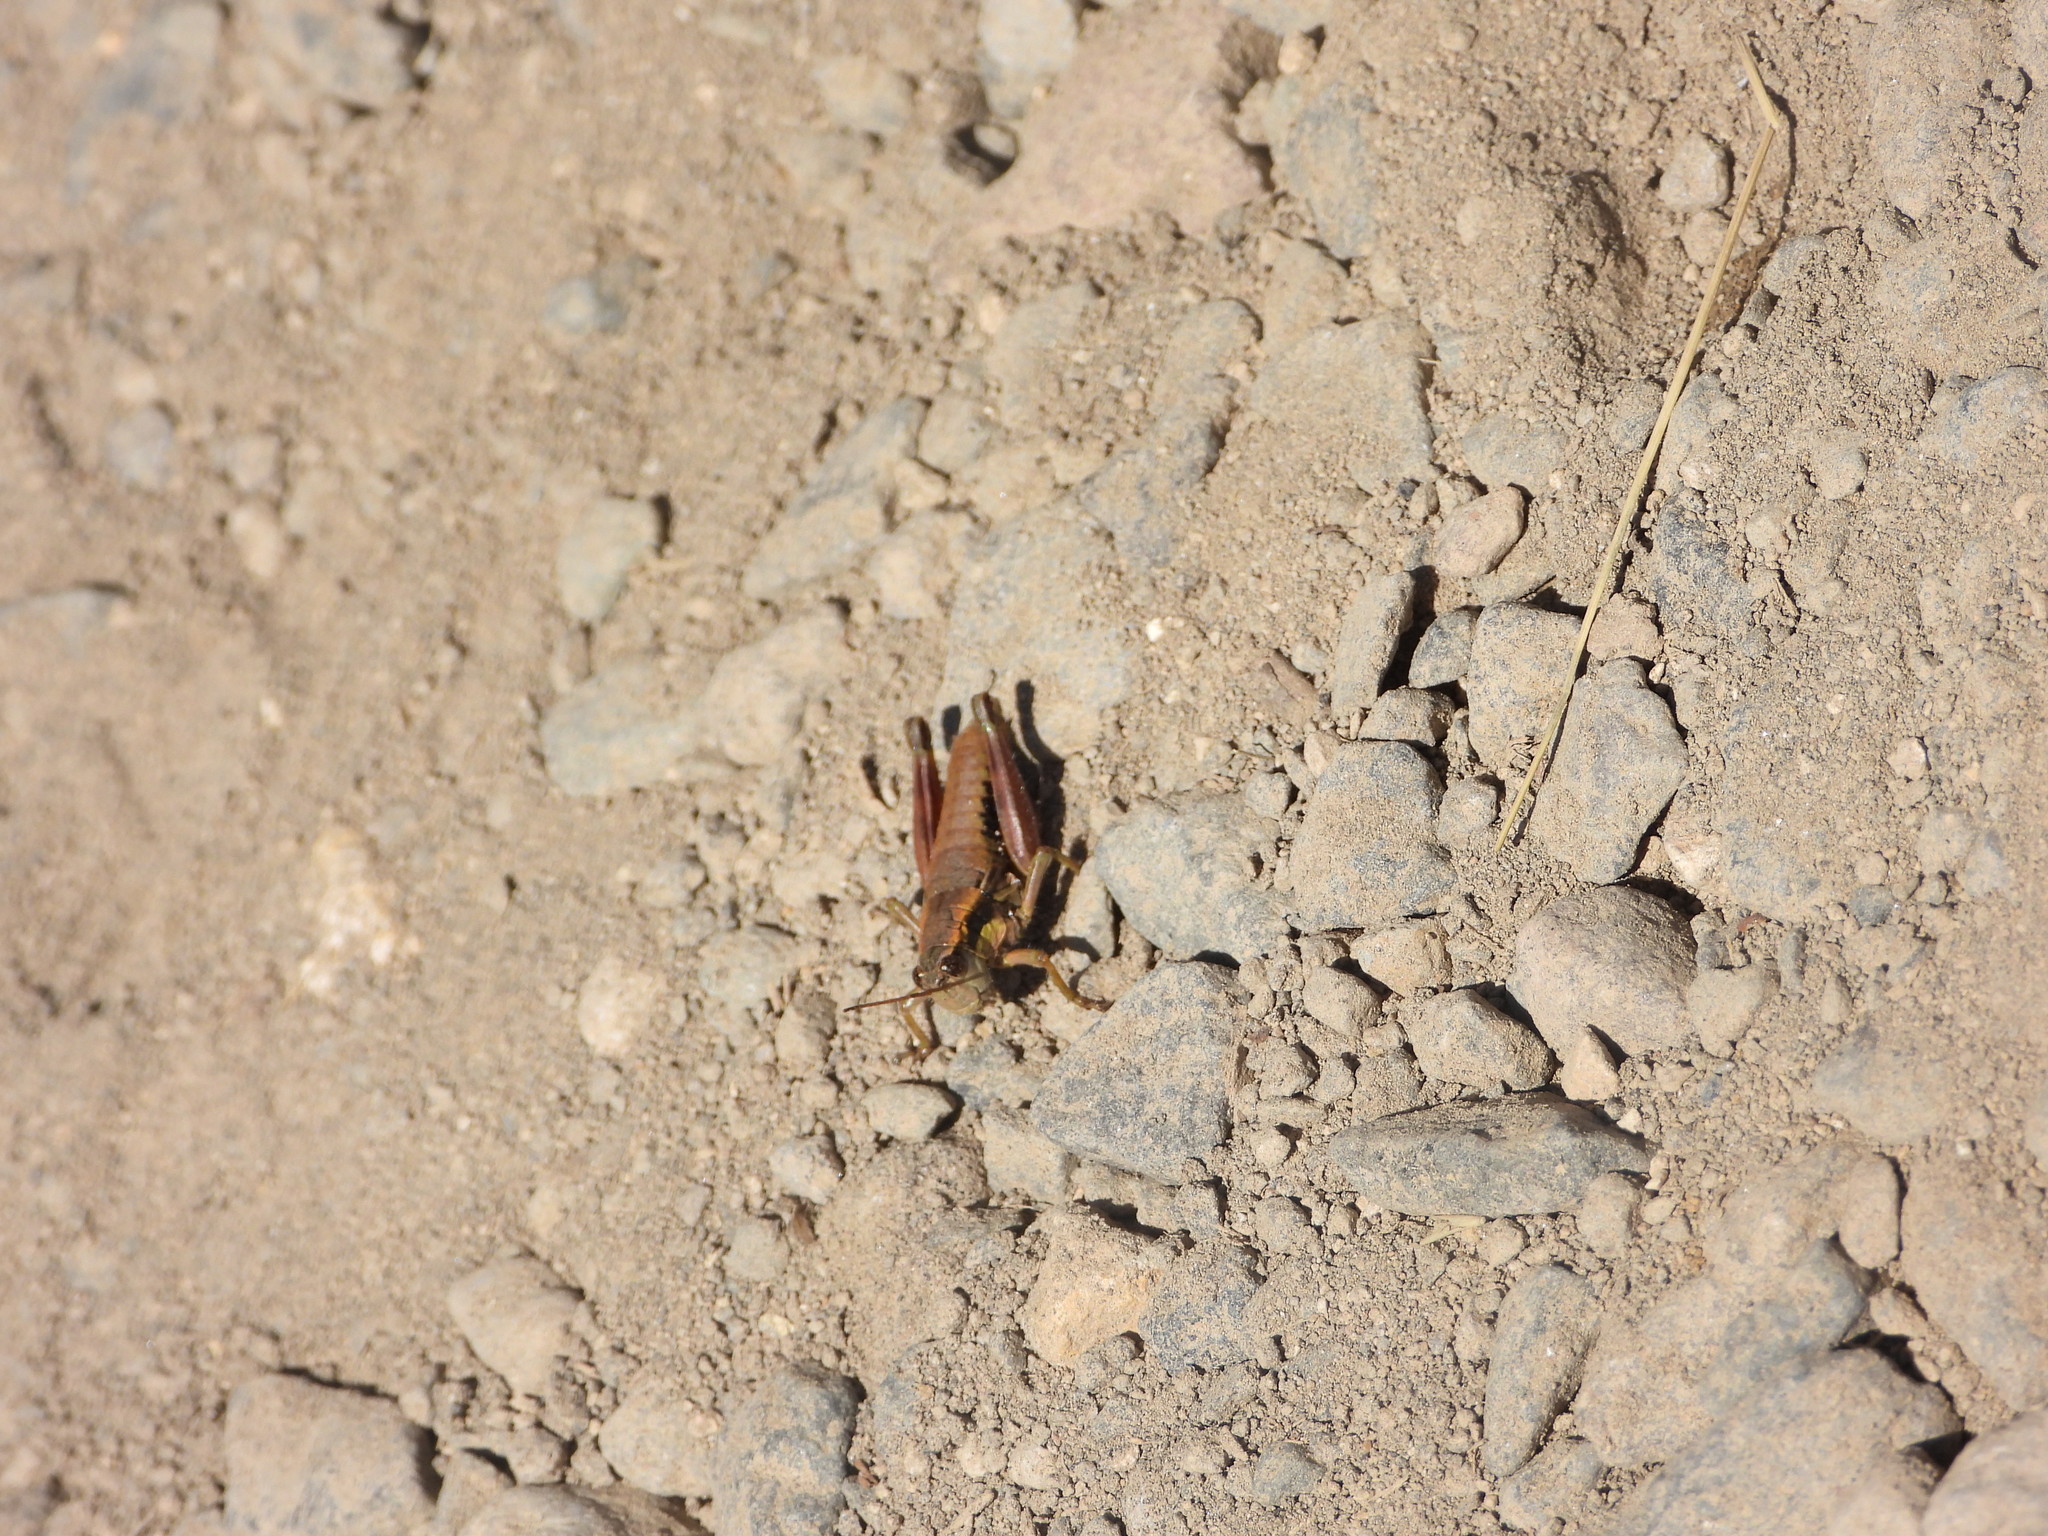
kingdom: Animalia
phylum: Arthropoda
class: Insecta
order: Orthoptera
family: Acrididae
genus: Prumnacris
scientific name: Prumnacris rainierensis
